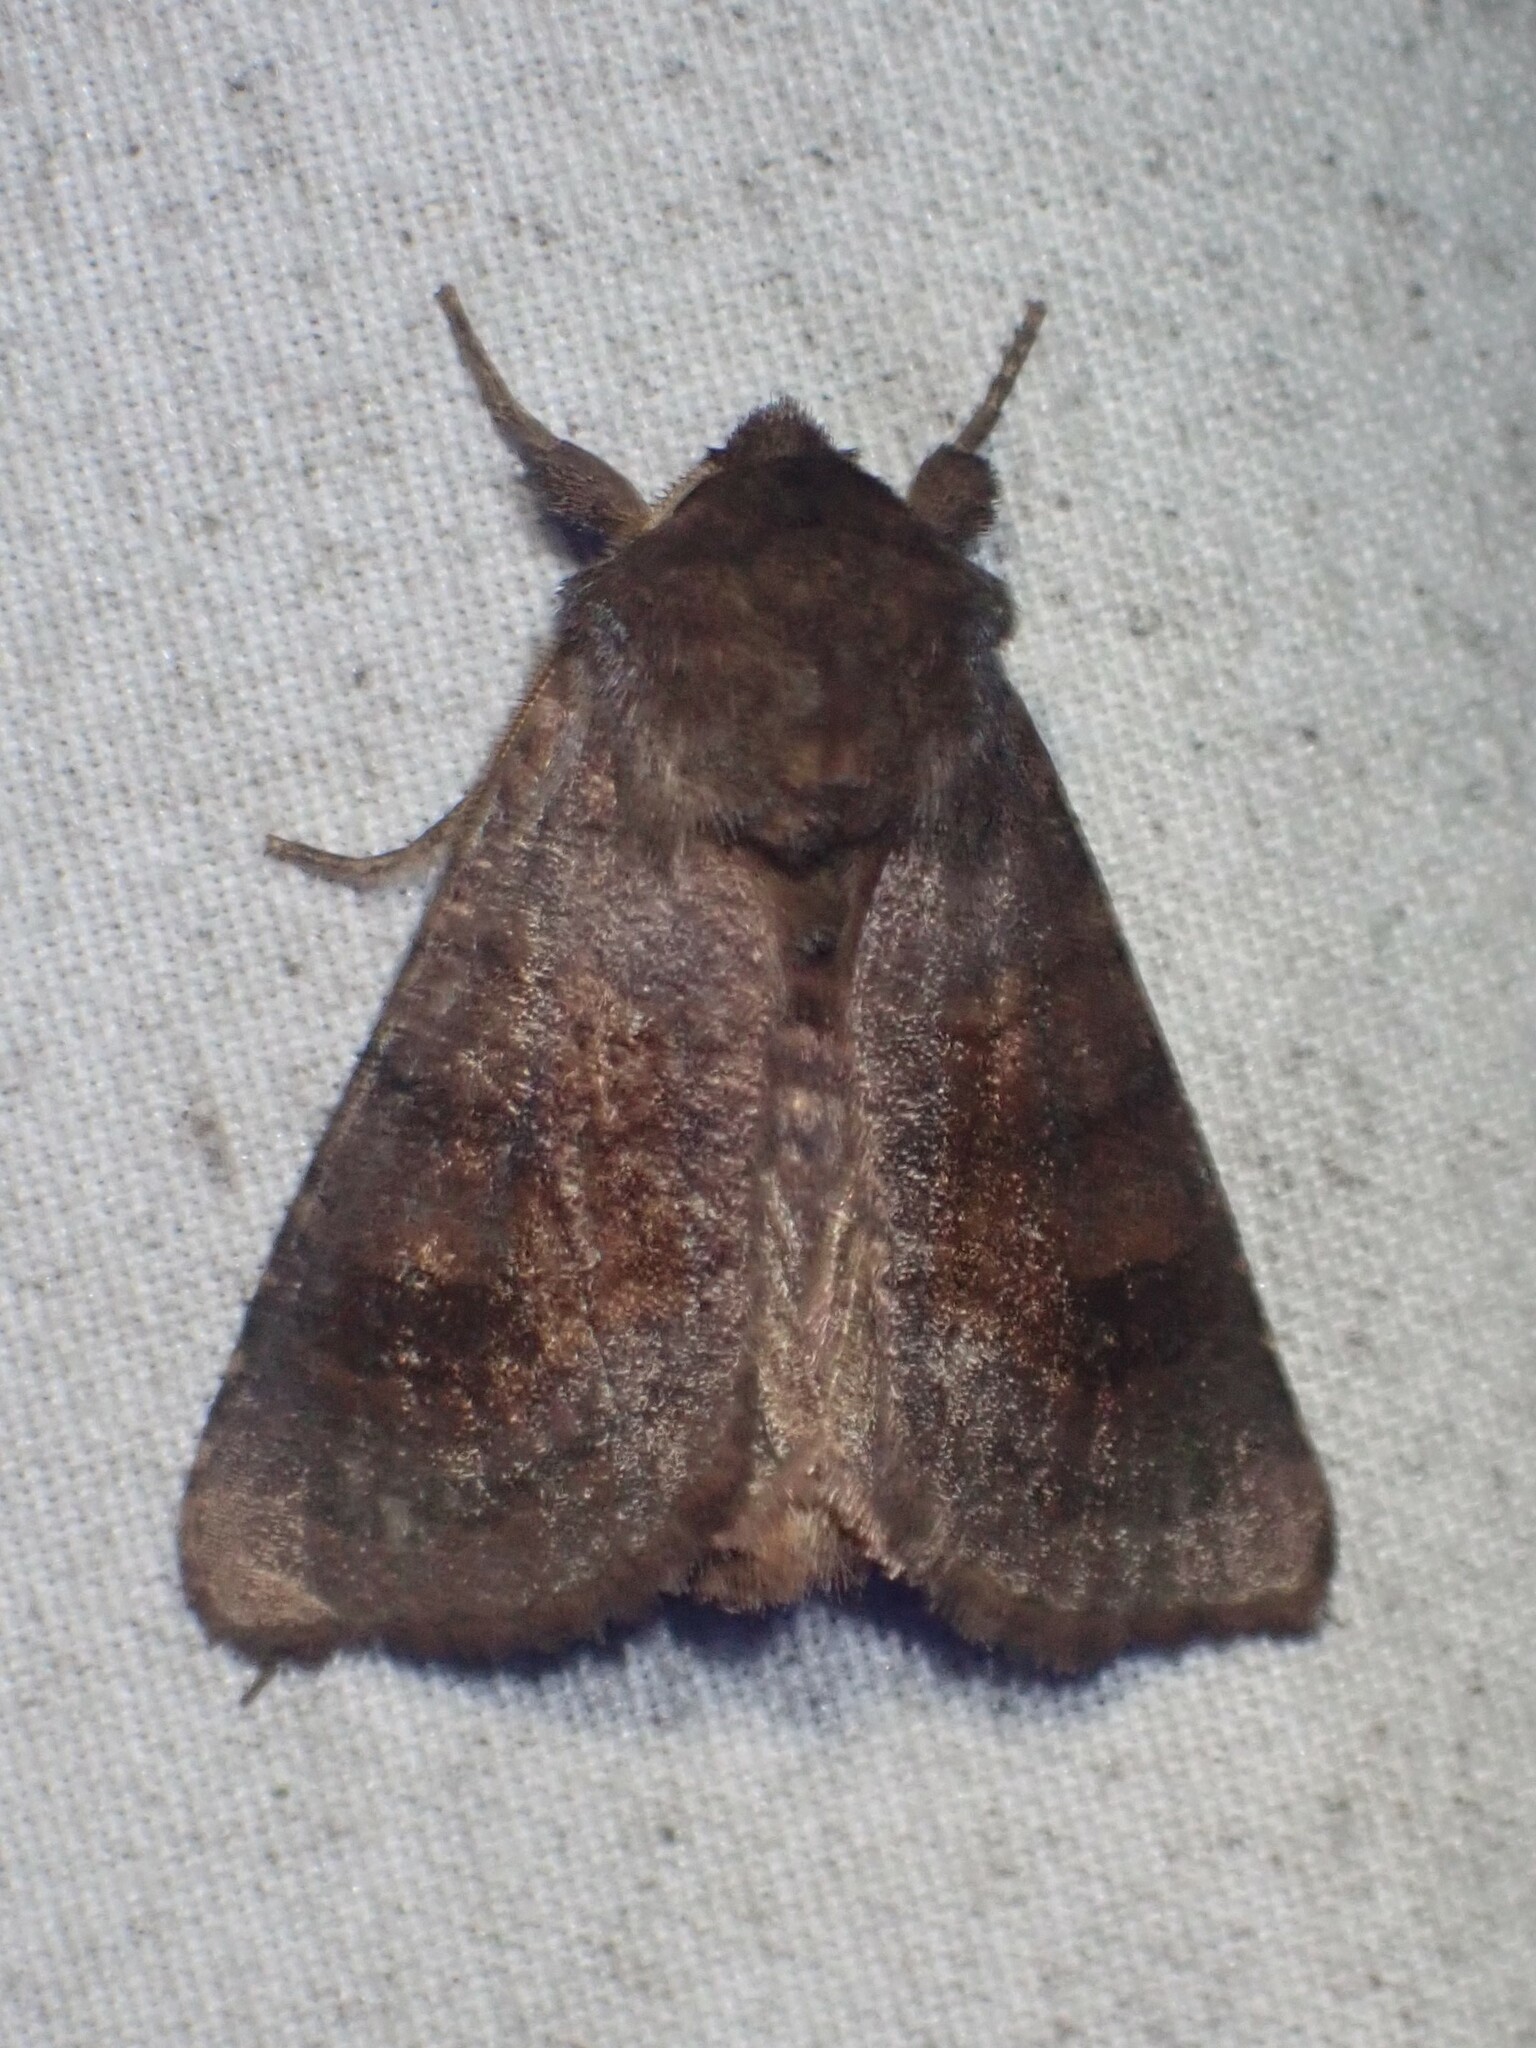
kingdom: Animalia
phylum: Arthropoda
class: Insecta
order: Lepidoptera
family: Noctuidae
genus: Nephelodes
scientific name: Nephelodes minians
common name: Bronzed cutworm
